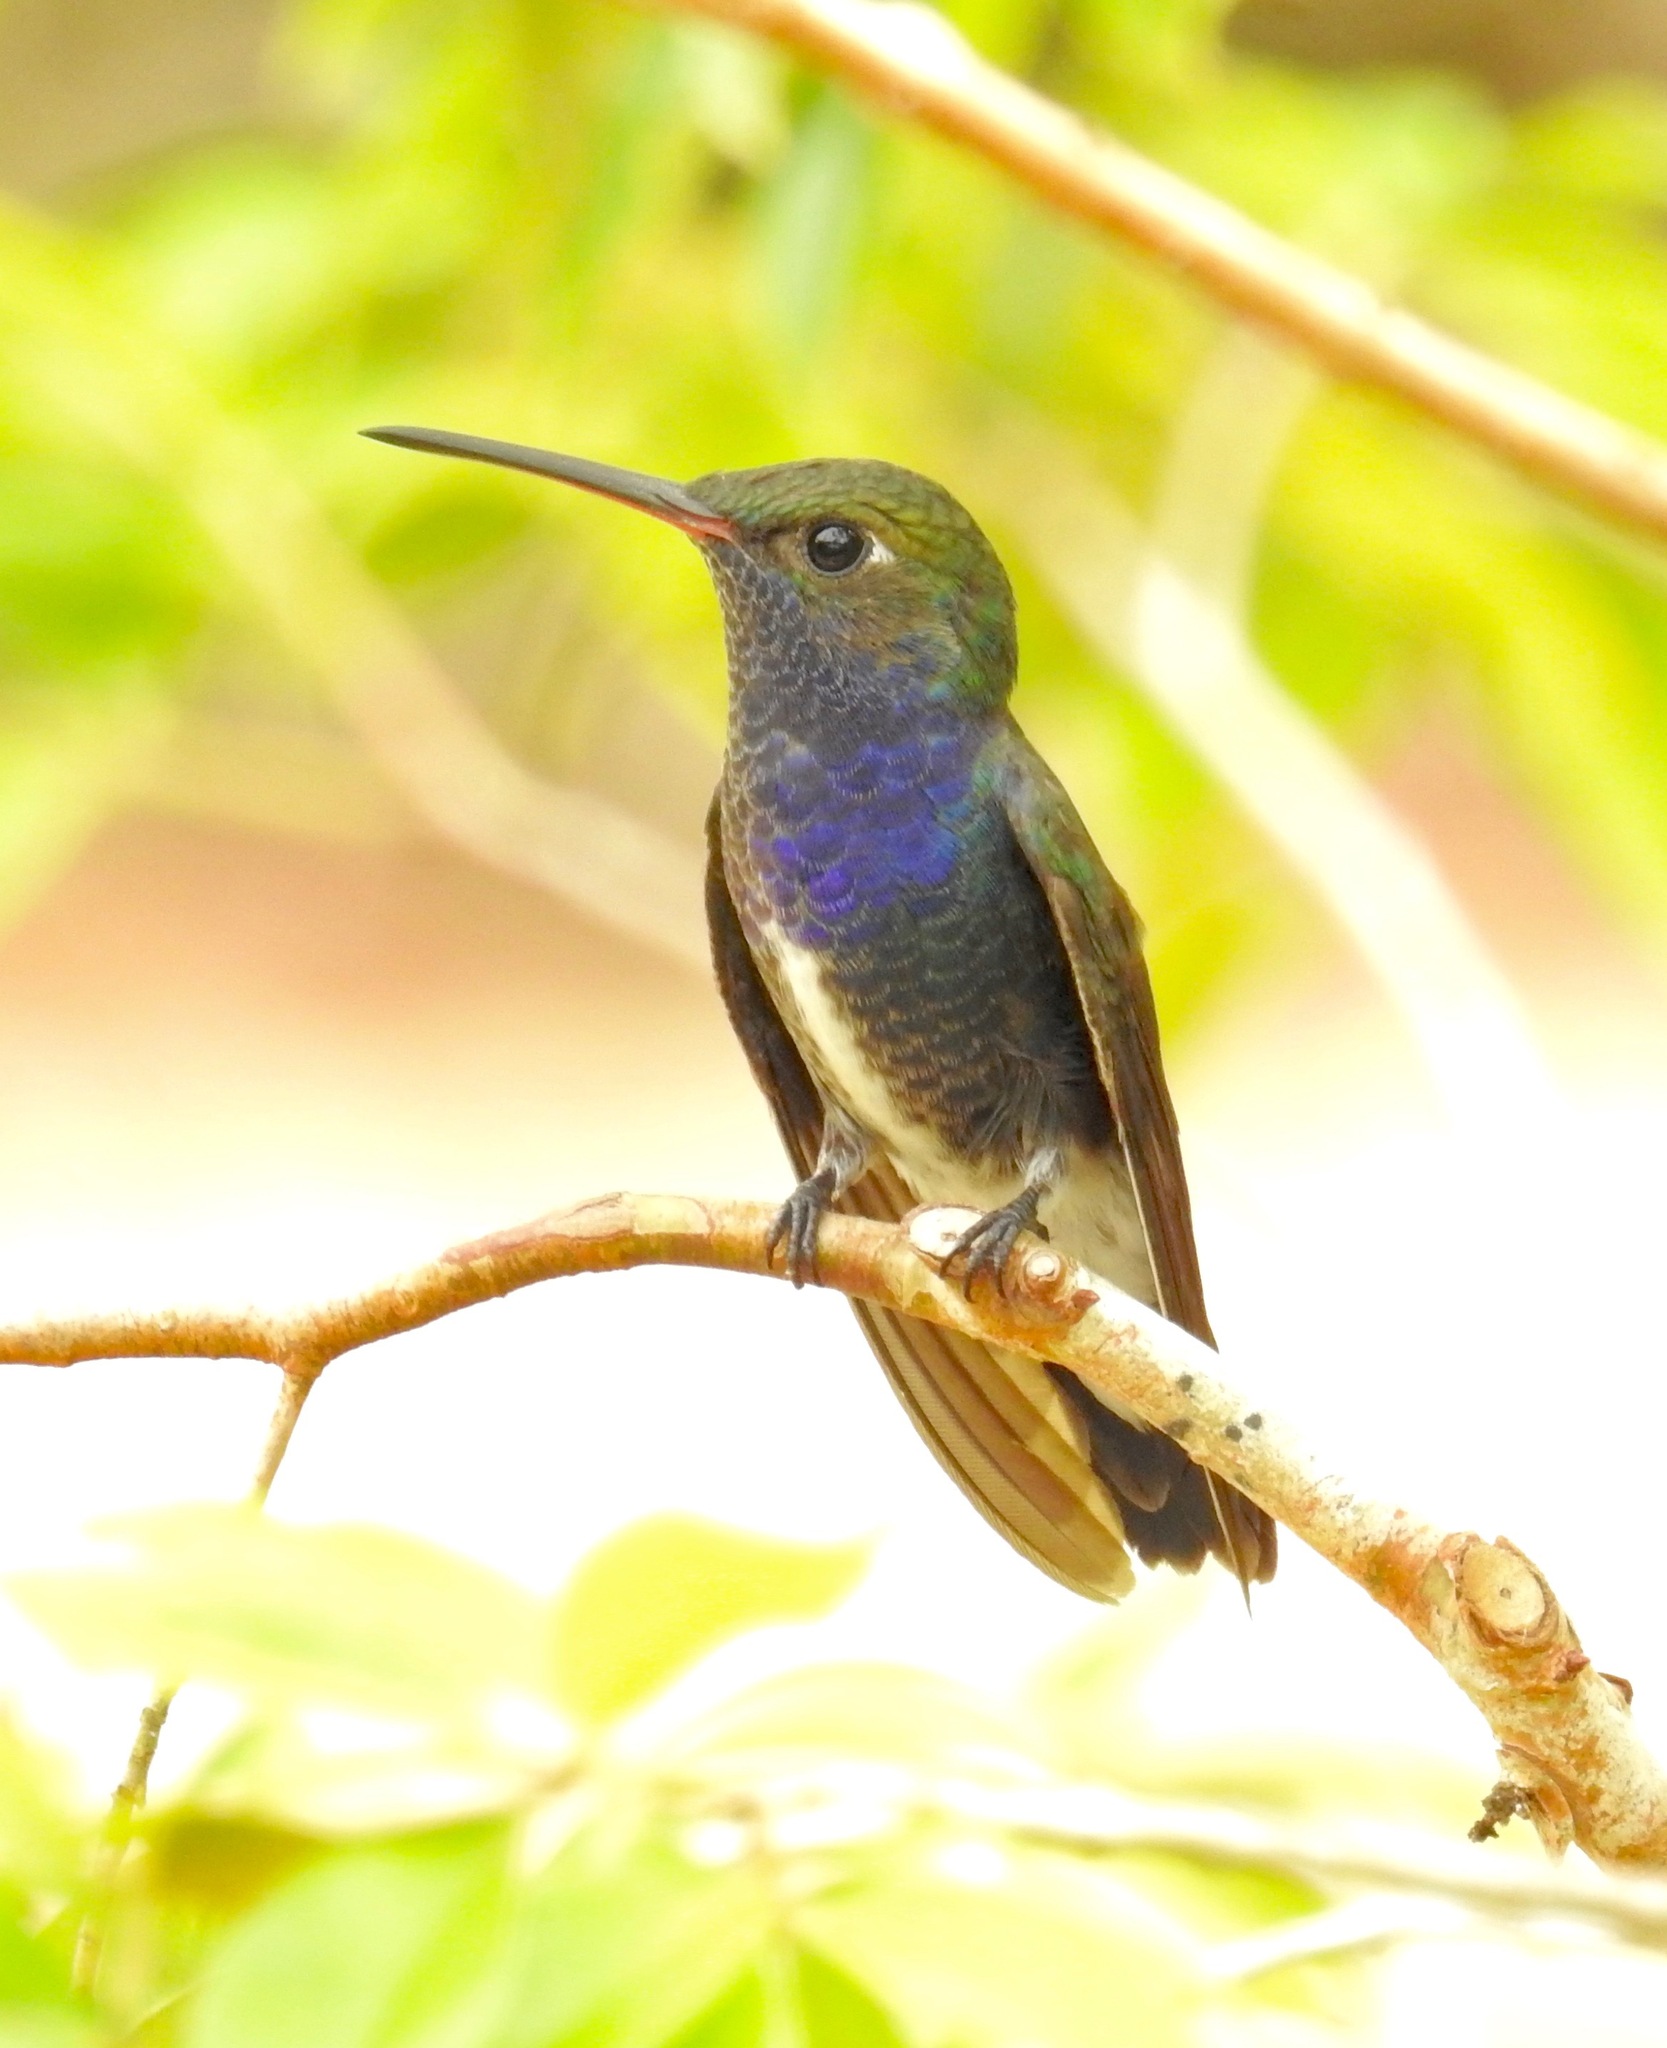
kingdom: Animalia
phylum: Chordata
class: Aves
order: Apodiformes
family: Trochilidae
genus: Chionomesa
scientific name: Chionomesa lactea
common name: Sapphire-spangled emerald
